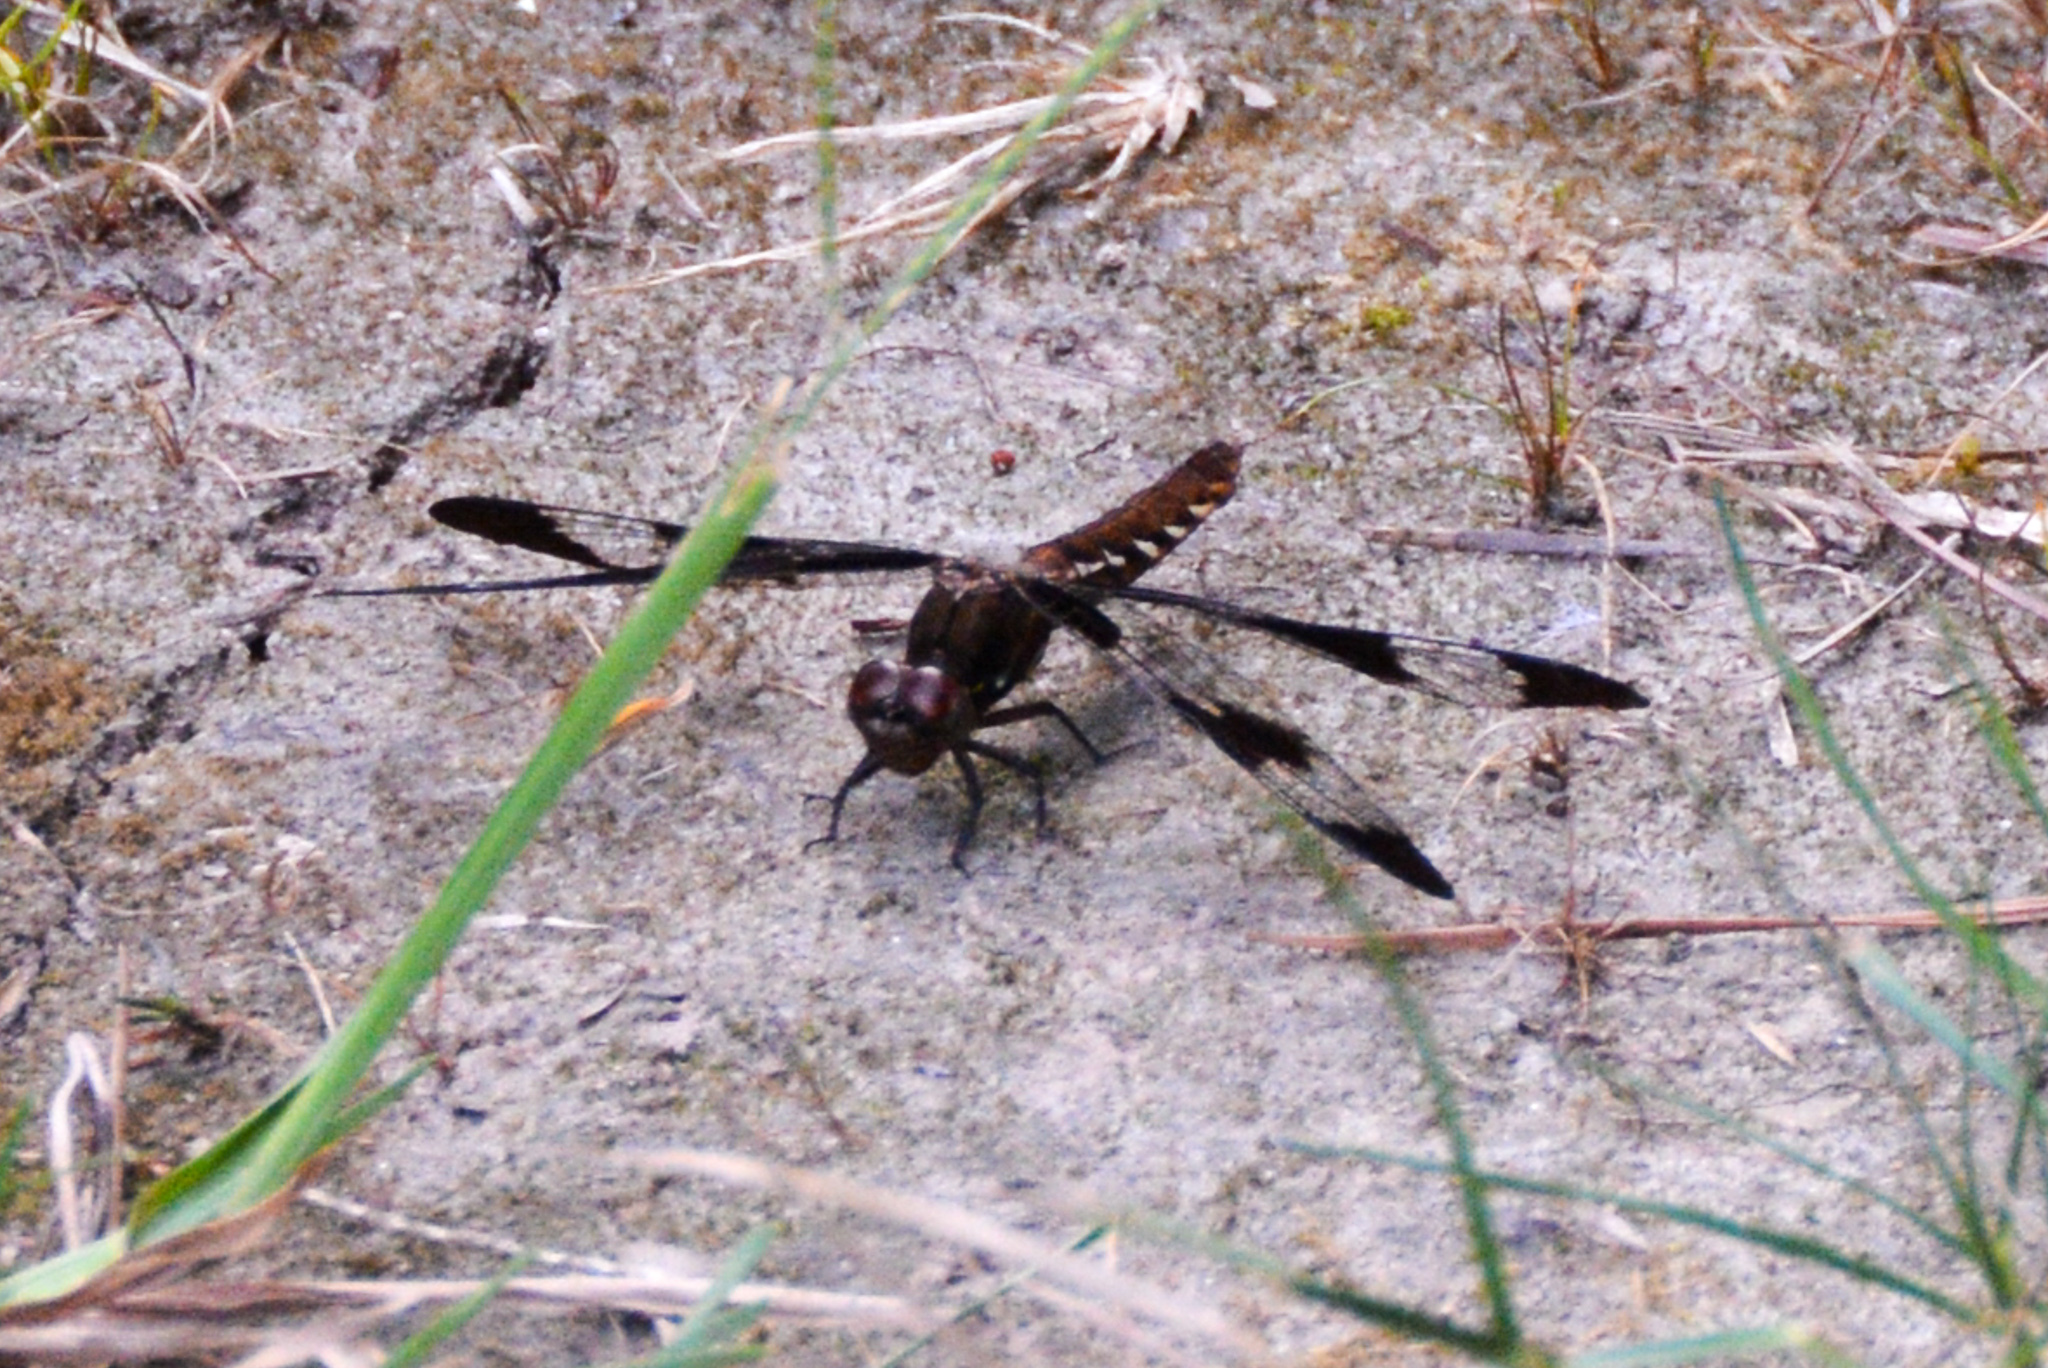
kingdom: Animalia
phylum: Arthropoda
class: Insecta
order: Odonata
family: Libellulidae
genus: Plathemis
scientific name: Plathemis lydia
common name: Common whitetail
